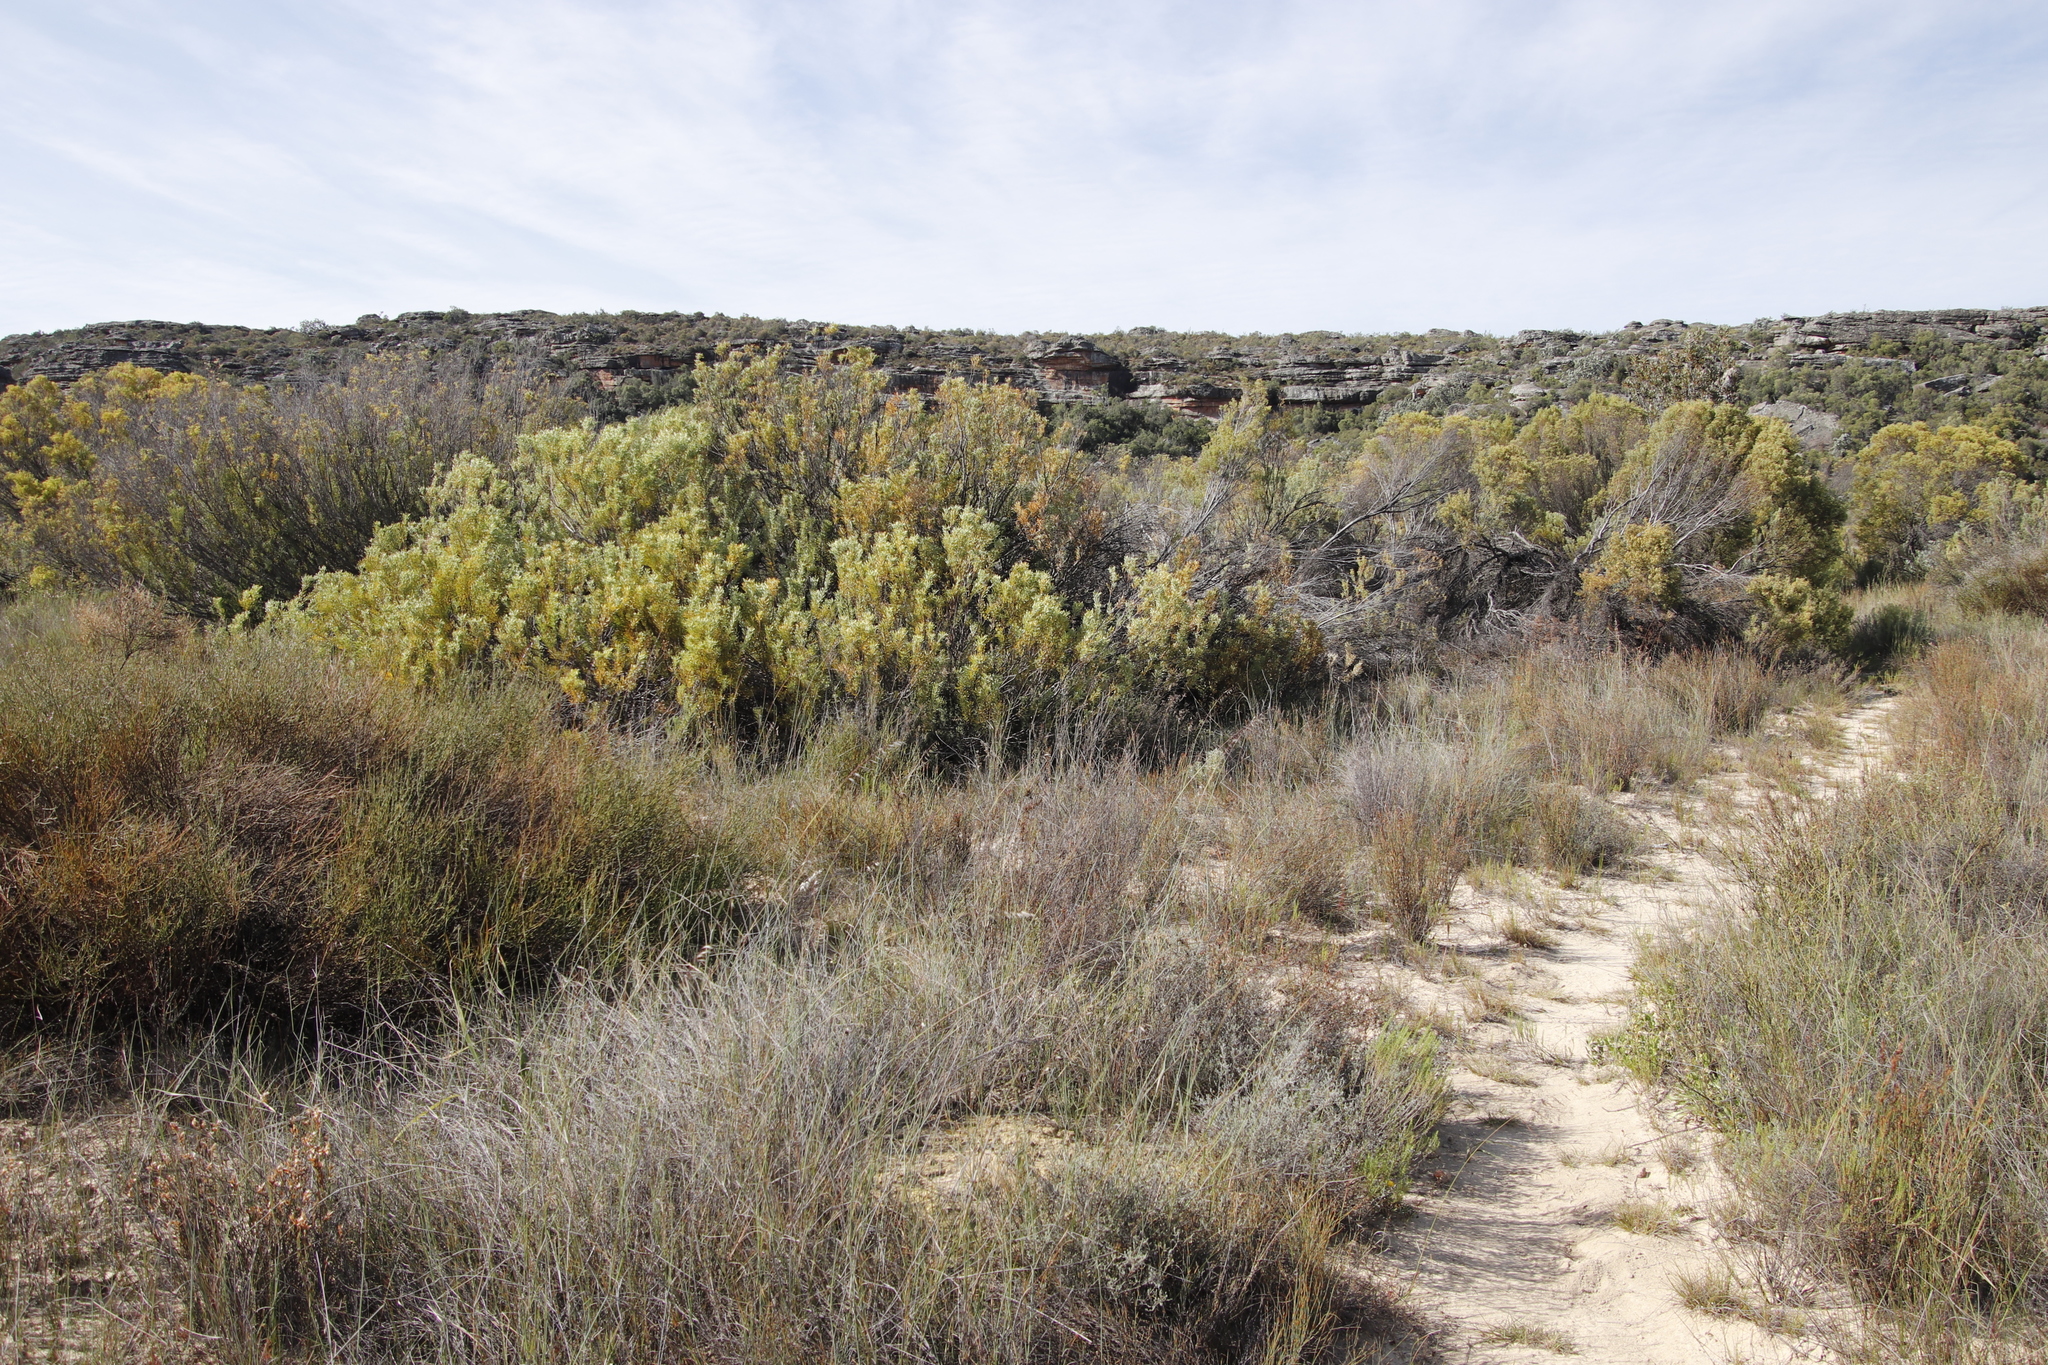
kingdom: Plantae
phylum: Tracheophyta
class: Magnoliopsida
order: Proteales
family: Proteaceae
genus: Leucadendron
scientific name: Leucadendron pubescens
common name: Grey conebush
